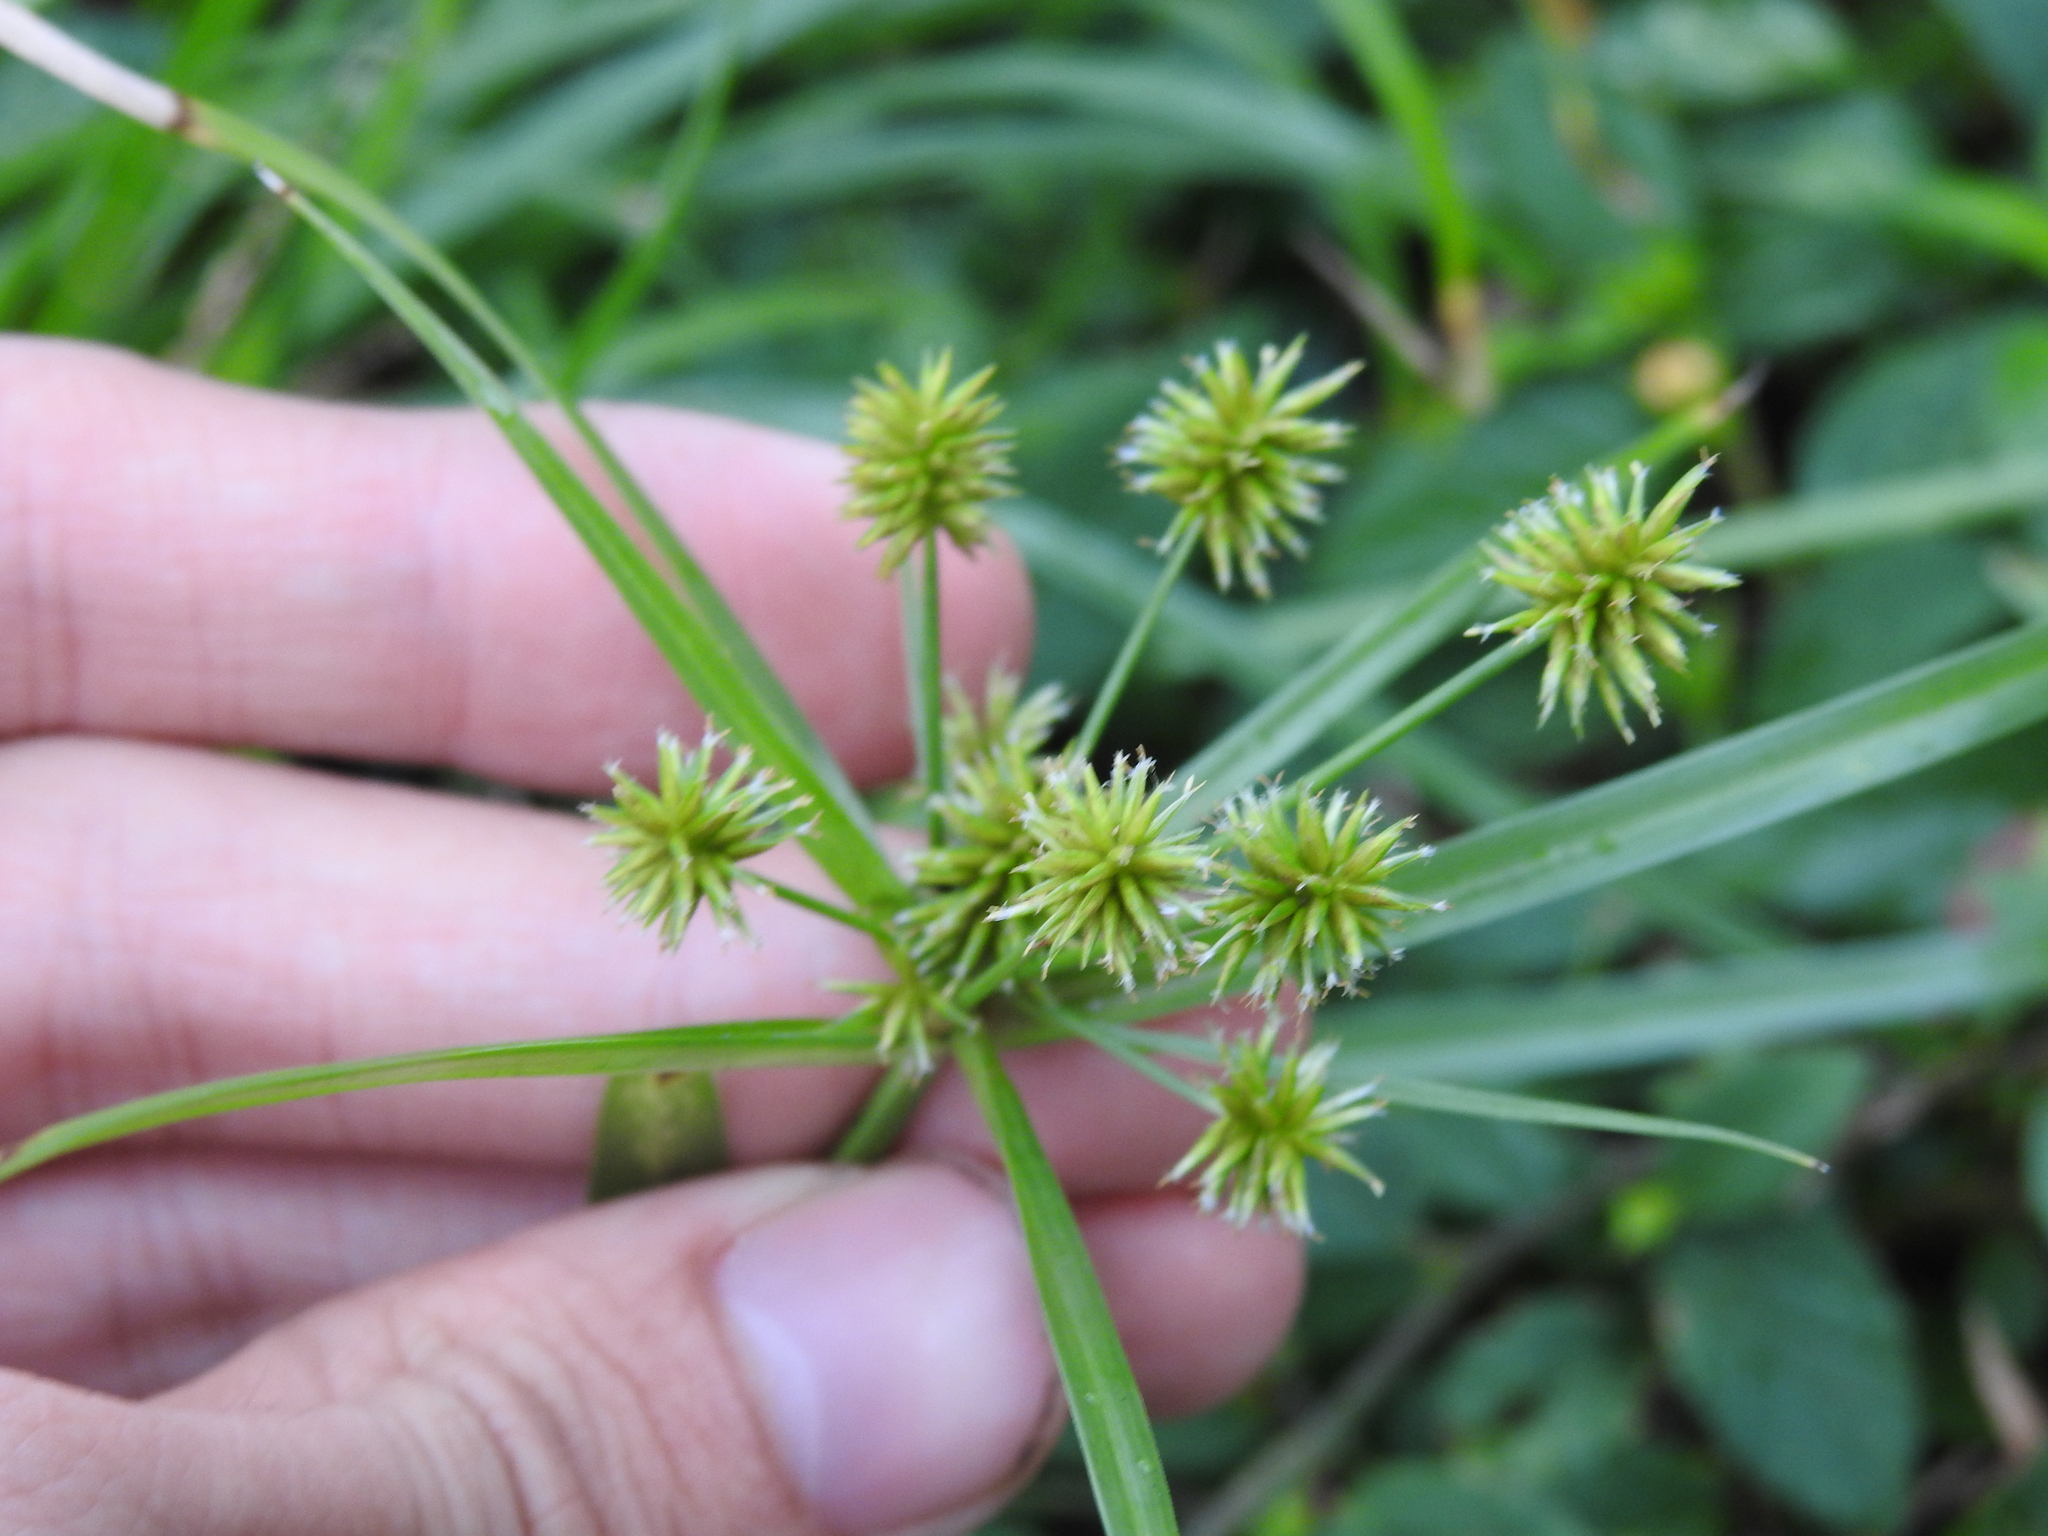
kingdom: Plantae
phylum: Tracheophyta
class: Liliopsida
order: Poales
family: Cyperaceae
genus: Cyperus
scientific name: Cyperus croceus
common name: Baldwin's flatsedge
